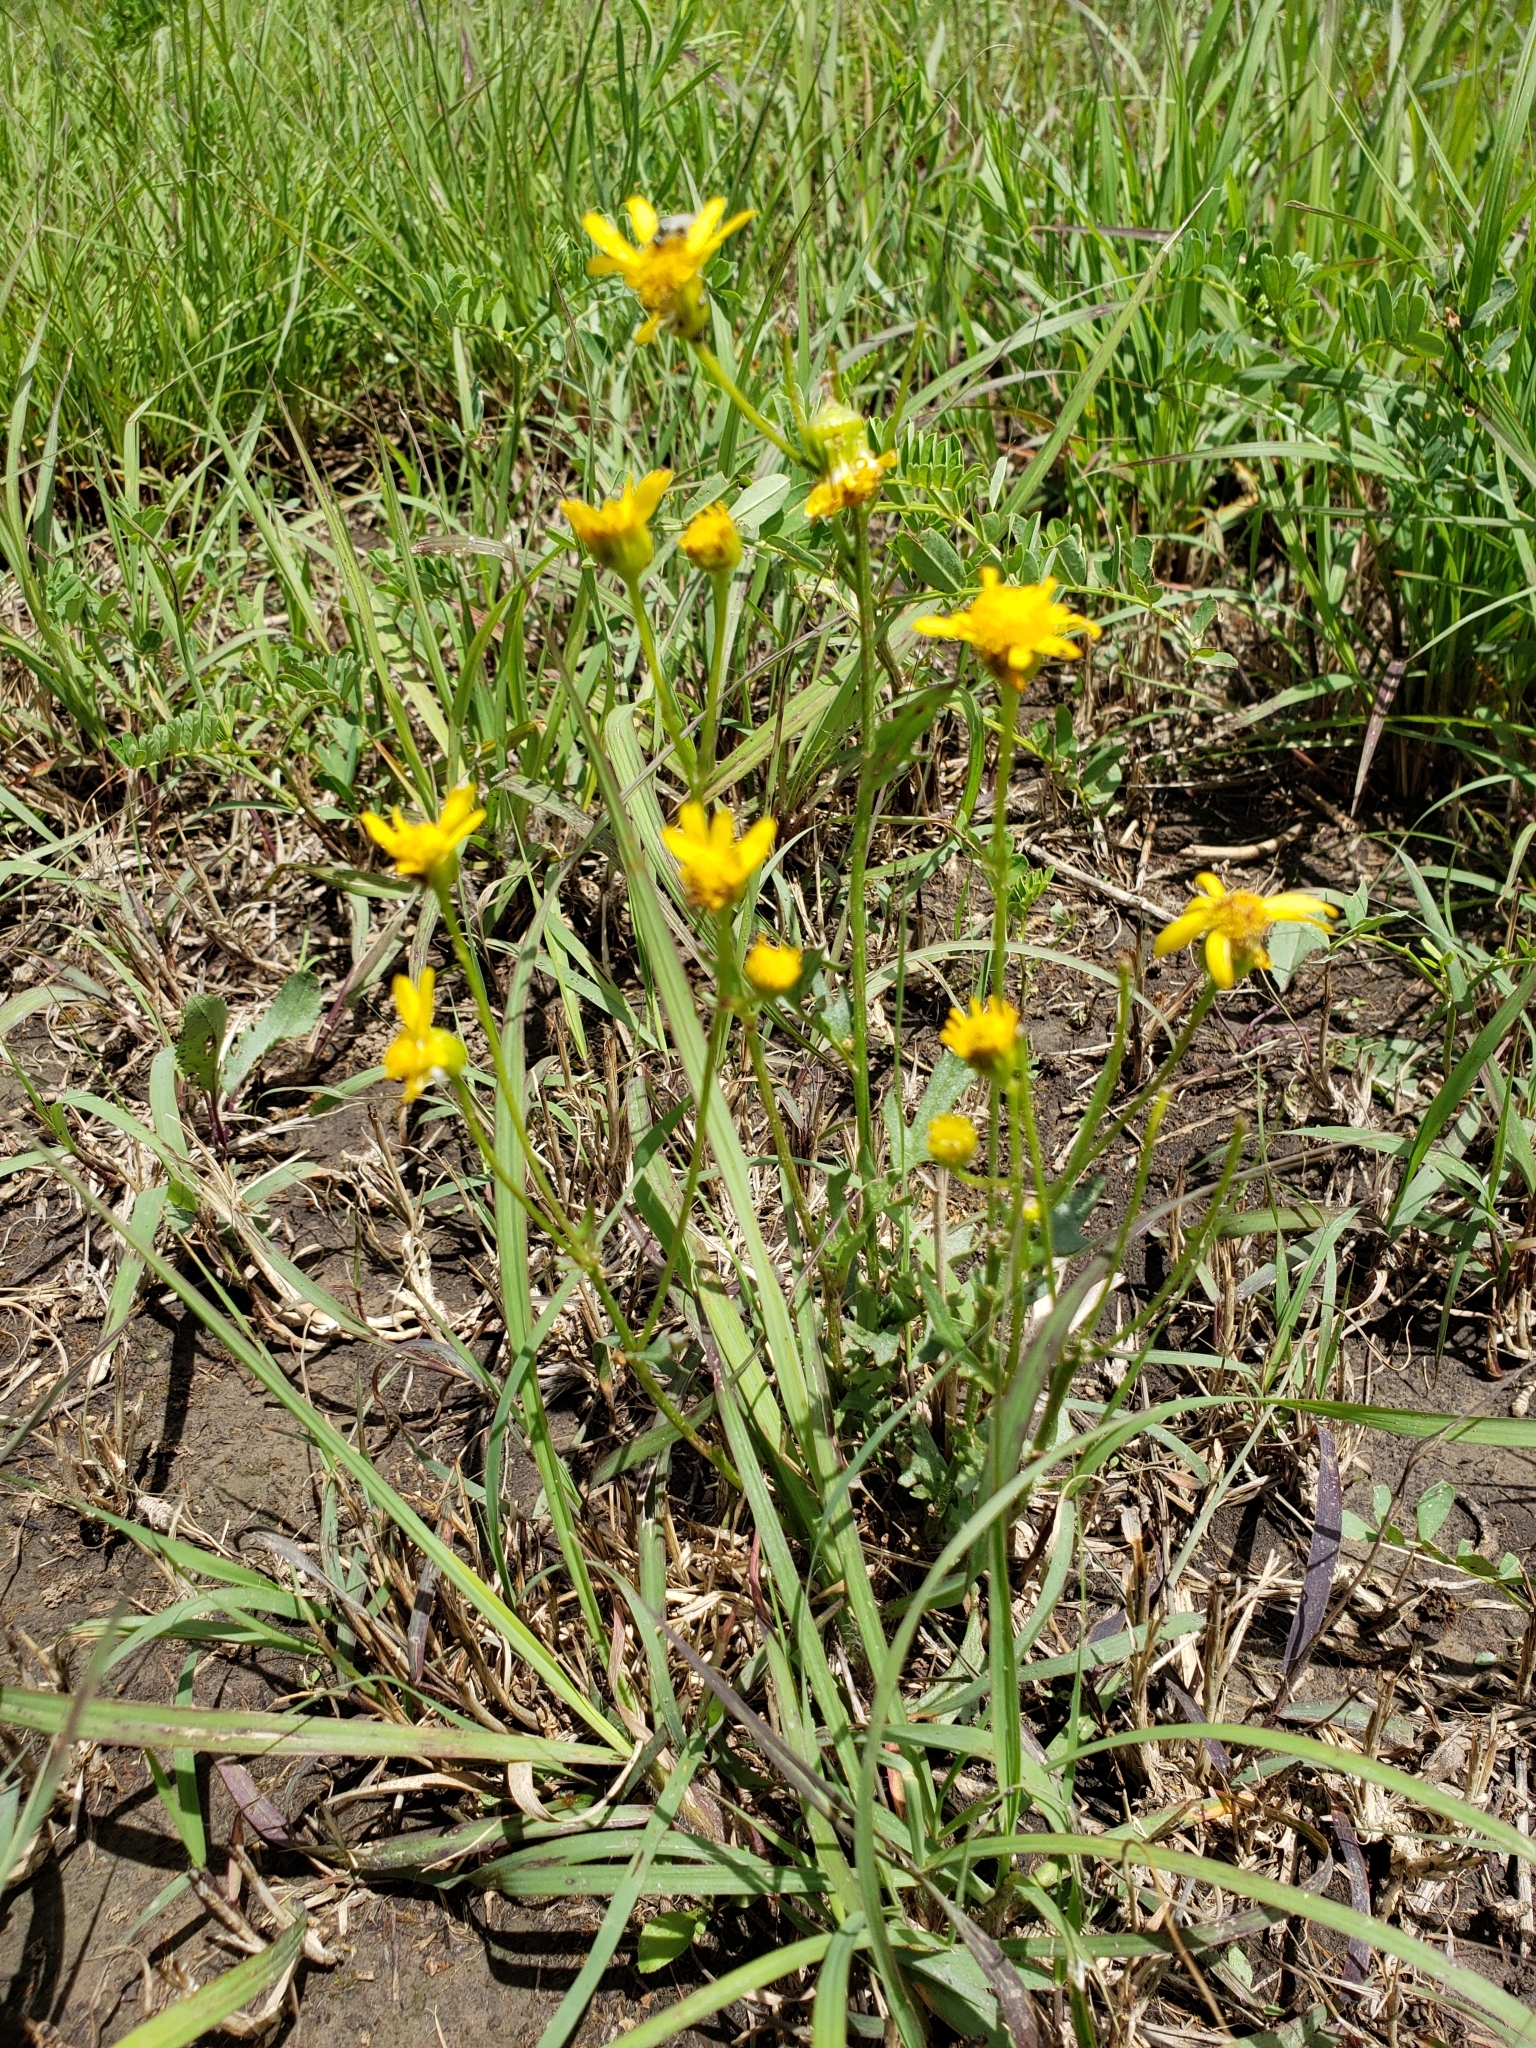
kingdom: Plantae
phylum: Tracheophyta
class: Magnoliopsida
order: Asterales
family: Asteraceae
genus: Packera
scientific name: Packera plattensis
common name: Prairie groundsel
